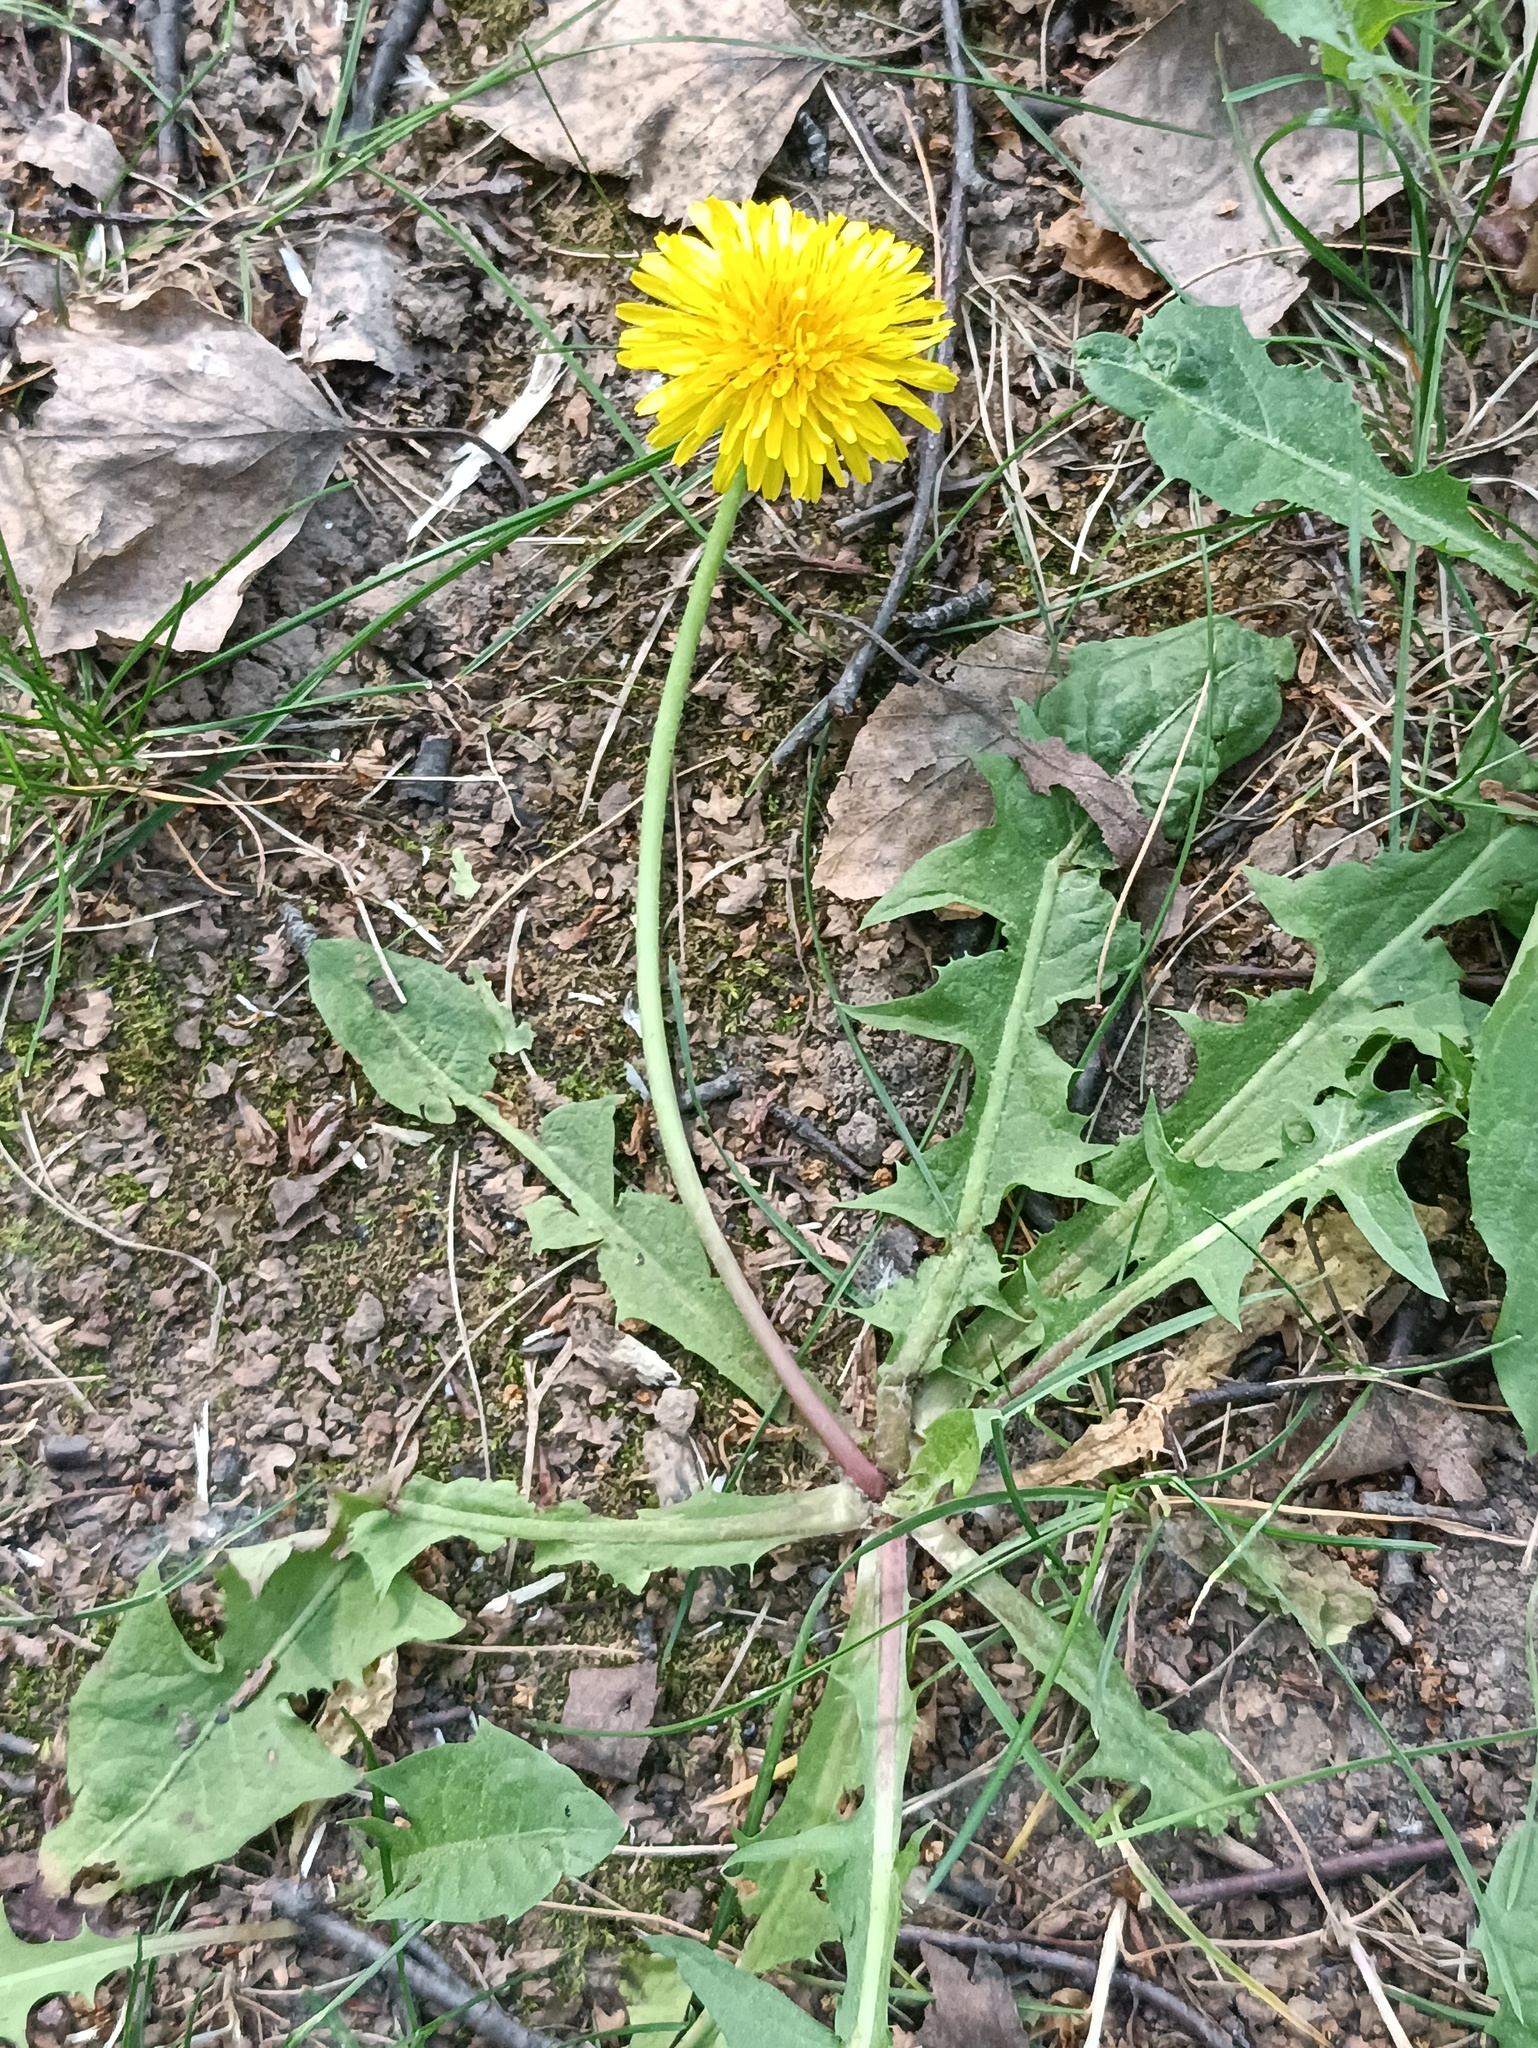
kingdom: Plantae
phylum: Tracheophyta
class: Magnoliopsida
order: Asterales
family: Asteraceae
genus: Taraxacum
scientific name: Taraxacum officinale
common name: Common dandelion
